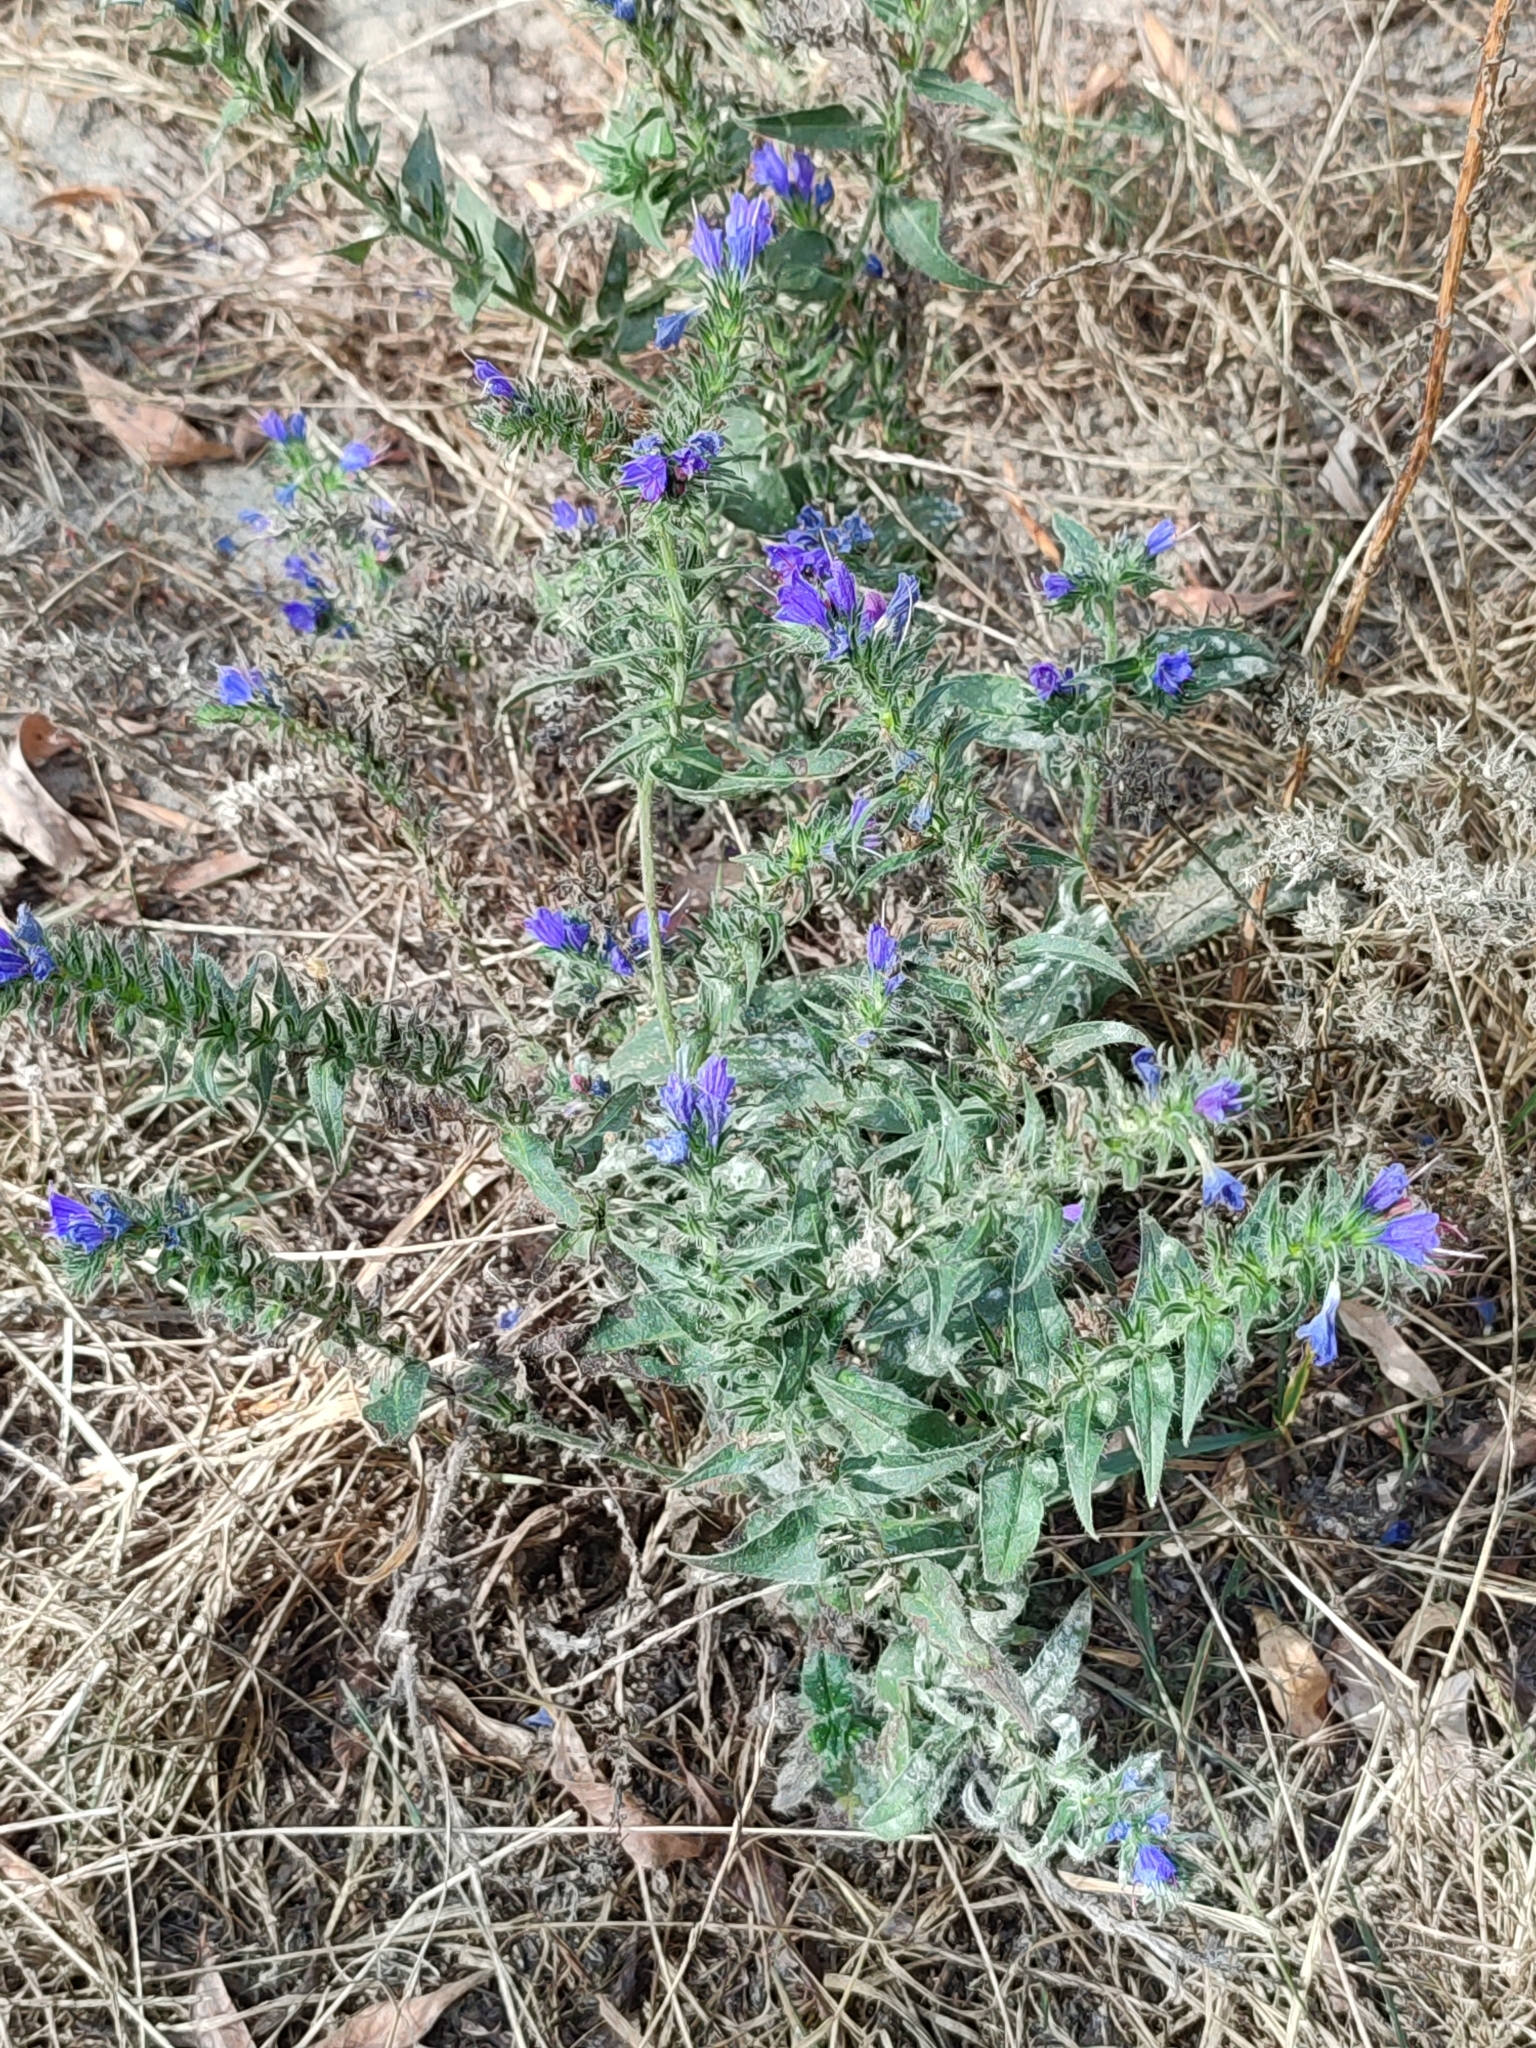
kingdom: Plantae
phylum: Tracheophyta
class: Magnoliopsida
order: Boraginales
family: Boraginaceae
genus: Echium
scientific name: Echium vulgare
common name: Common viper's bugloss
